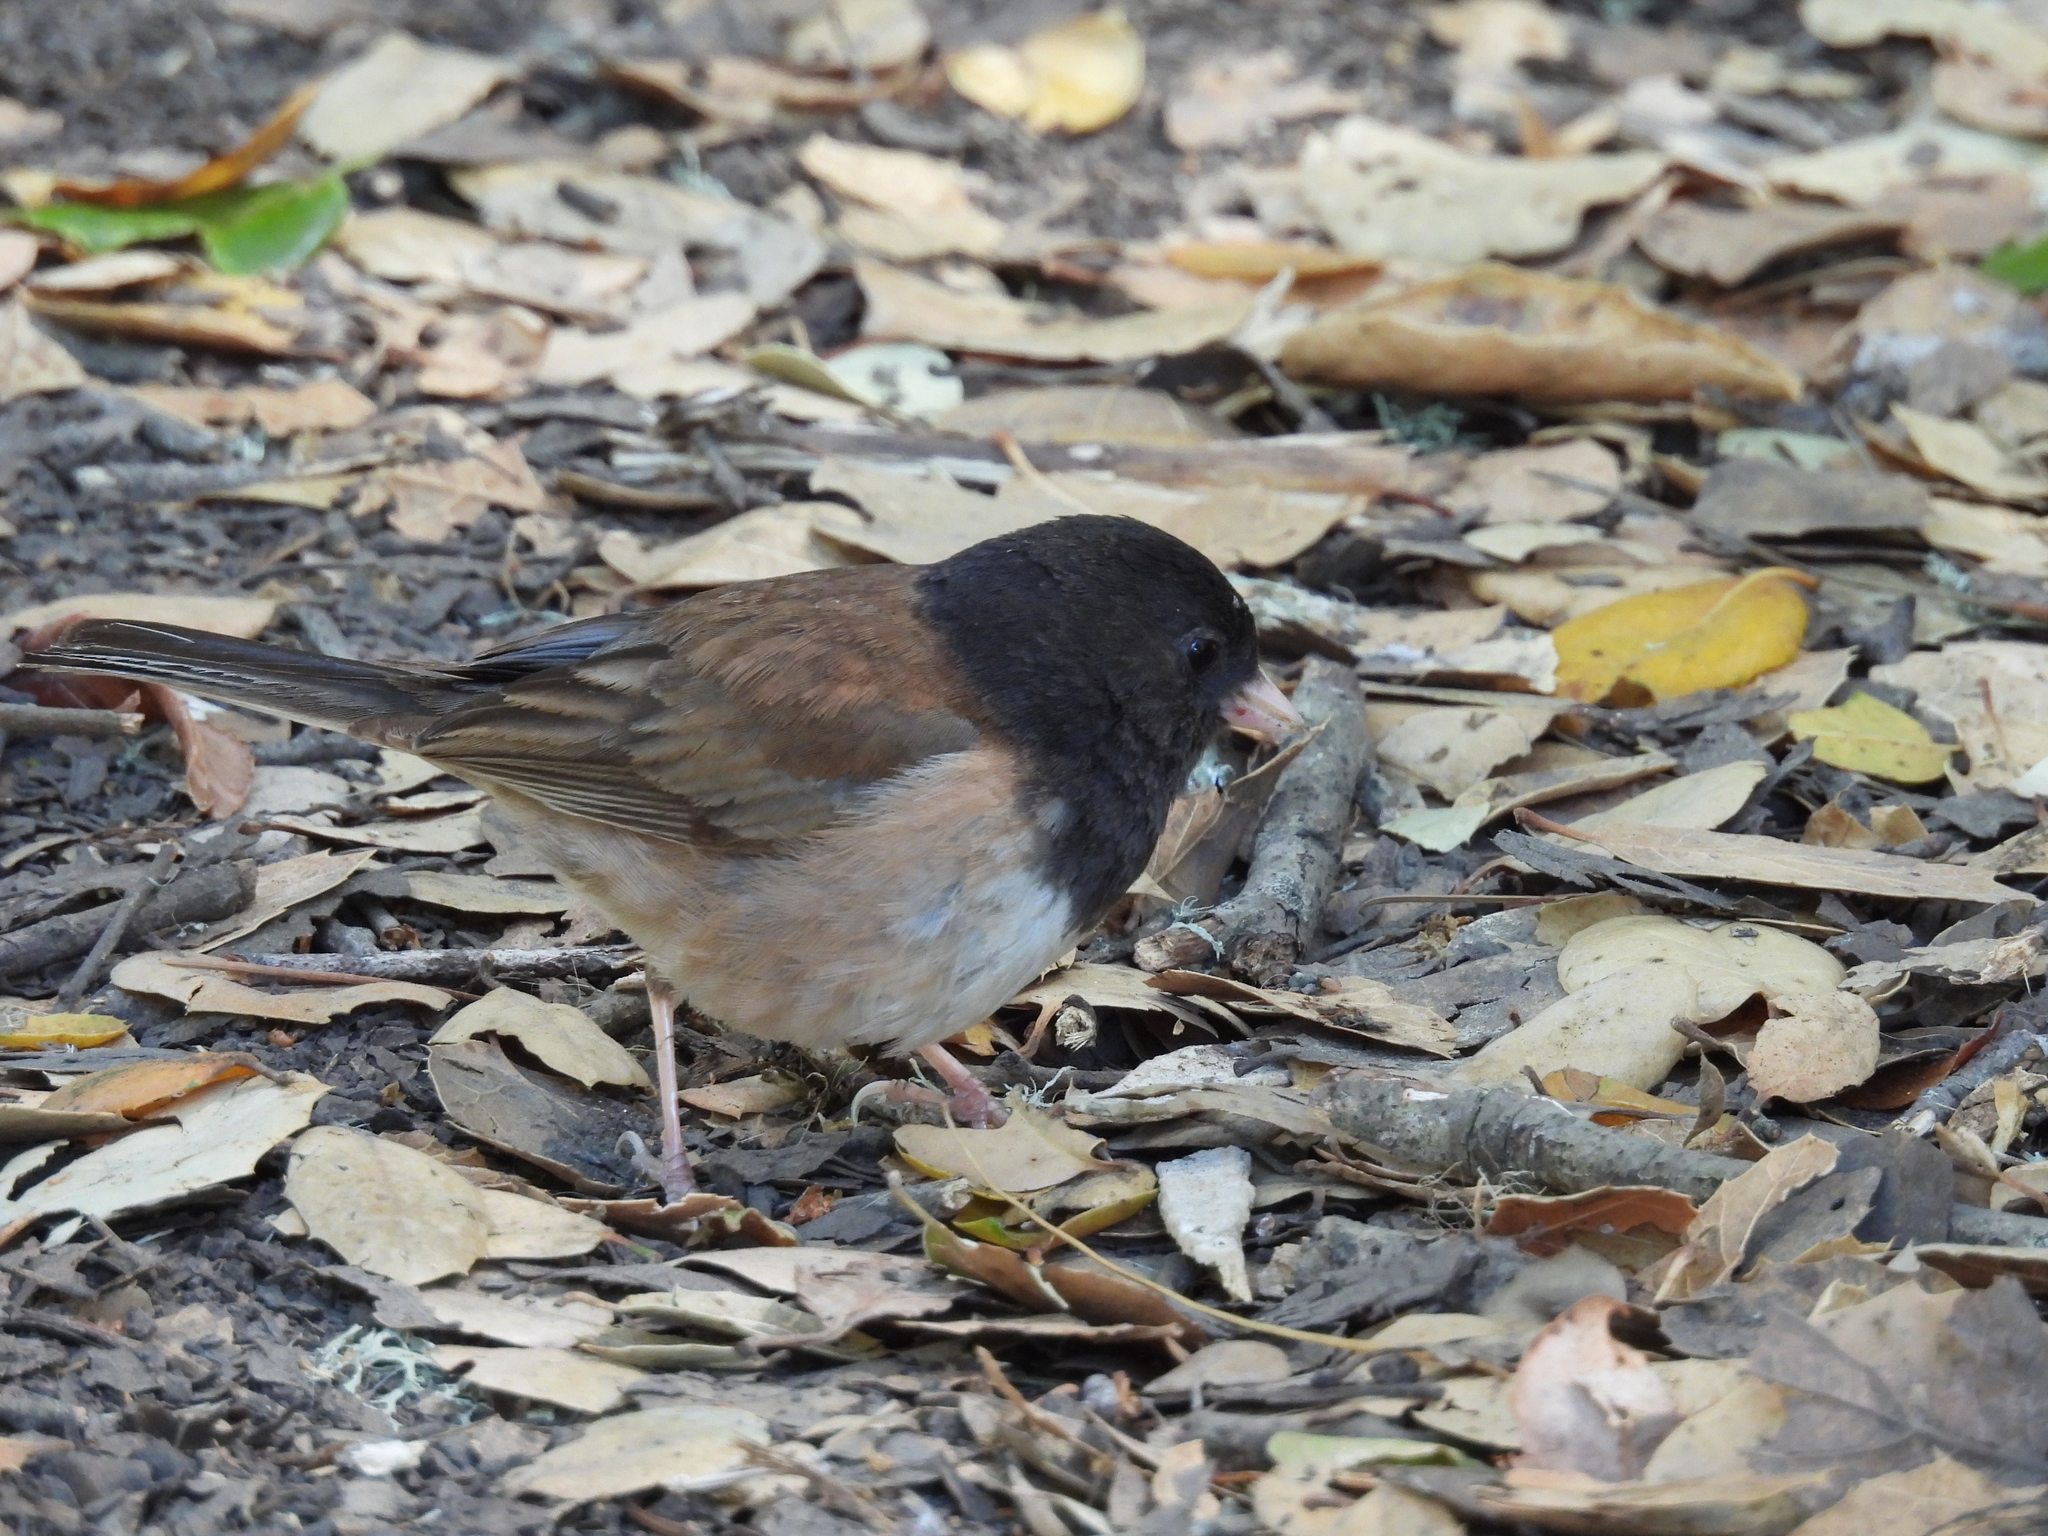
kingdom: Animalia
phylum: Chordata
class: Aves
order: Passeriformes
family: Passerellidae
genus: Junco
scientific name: Junco hyemalis
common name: Dark-eyed junco
